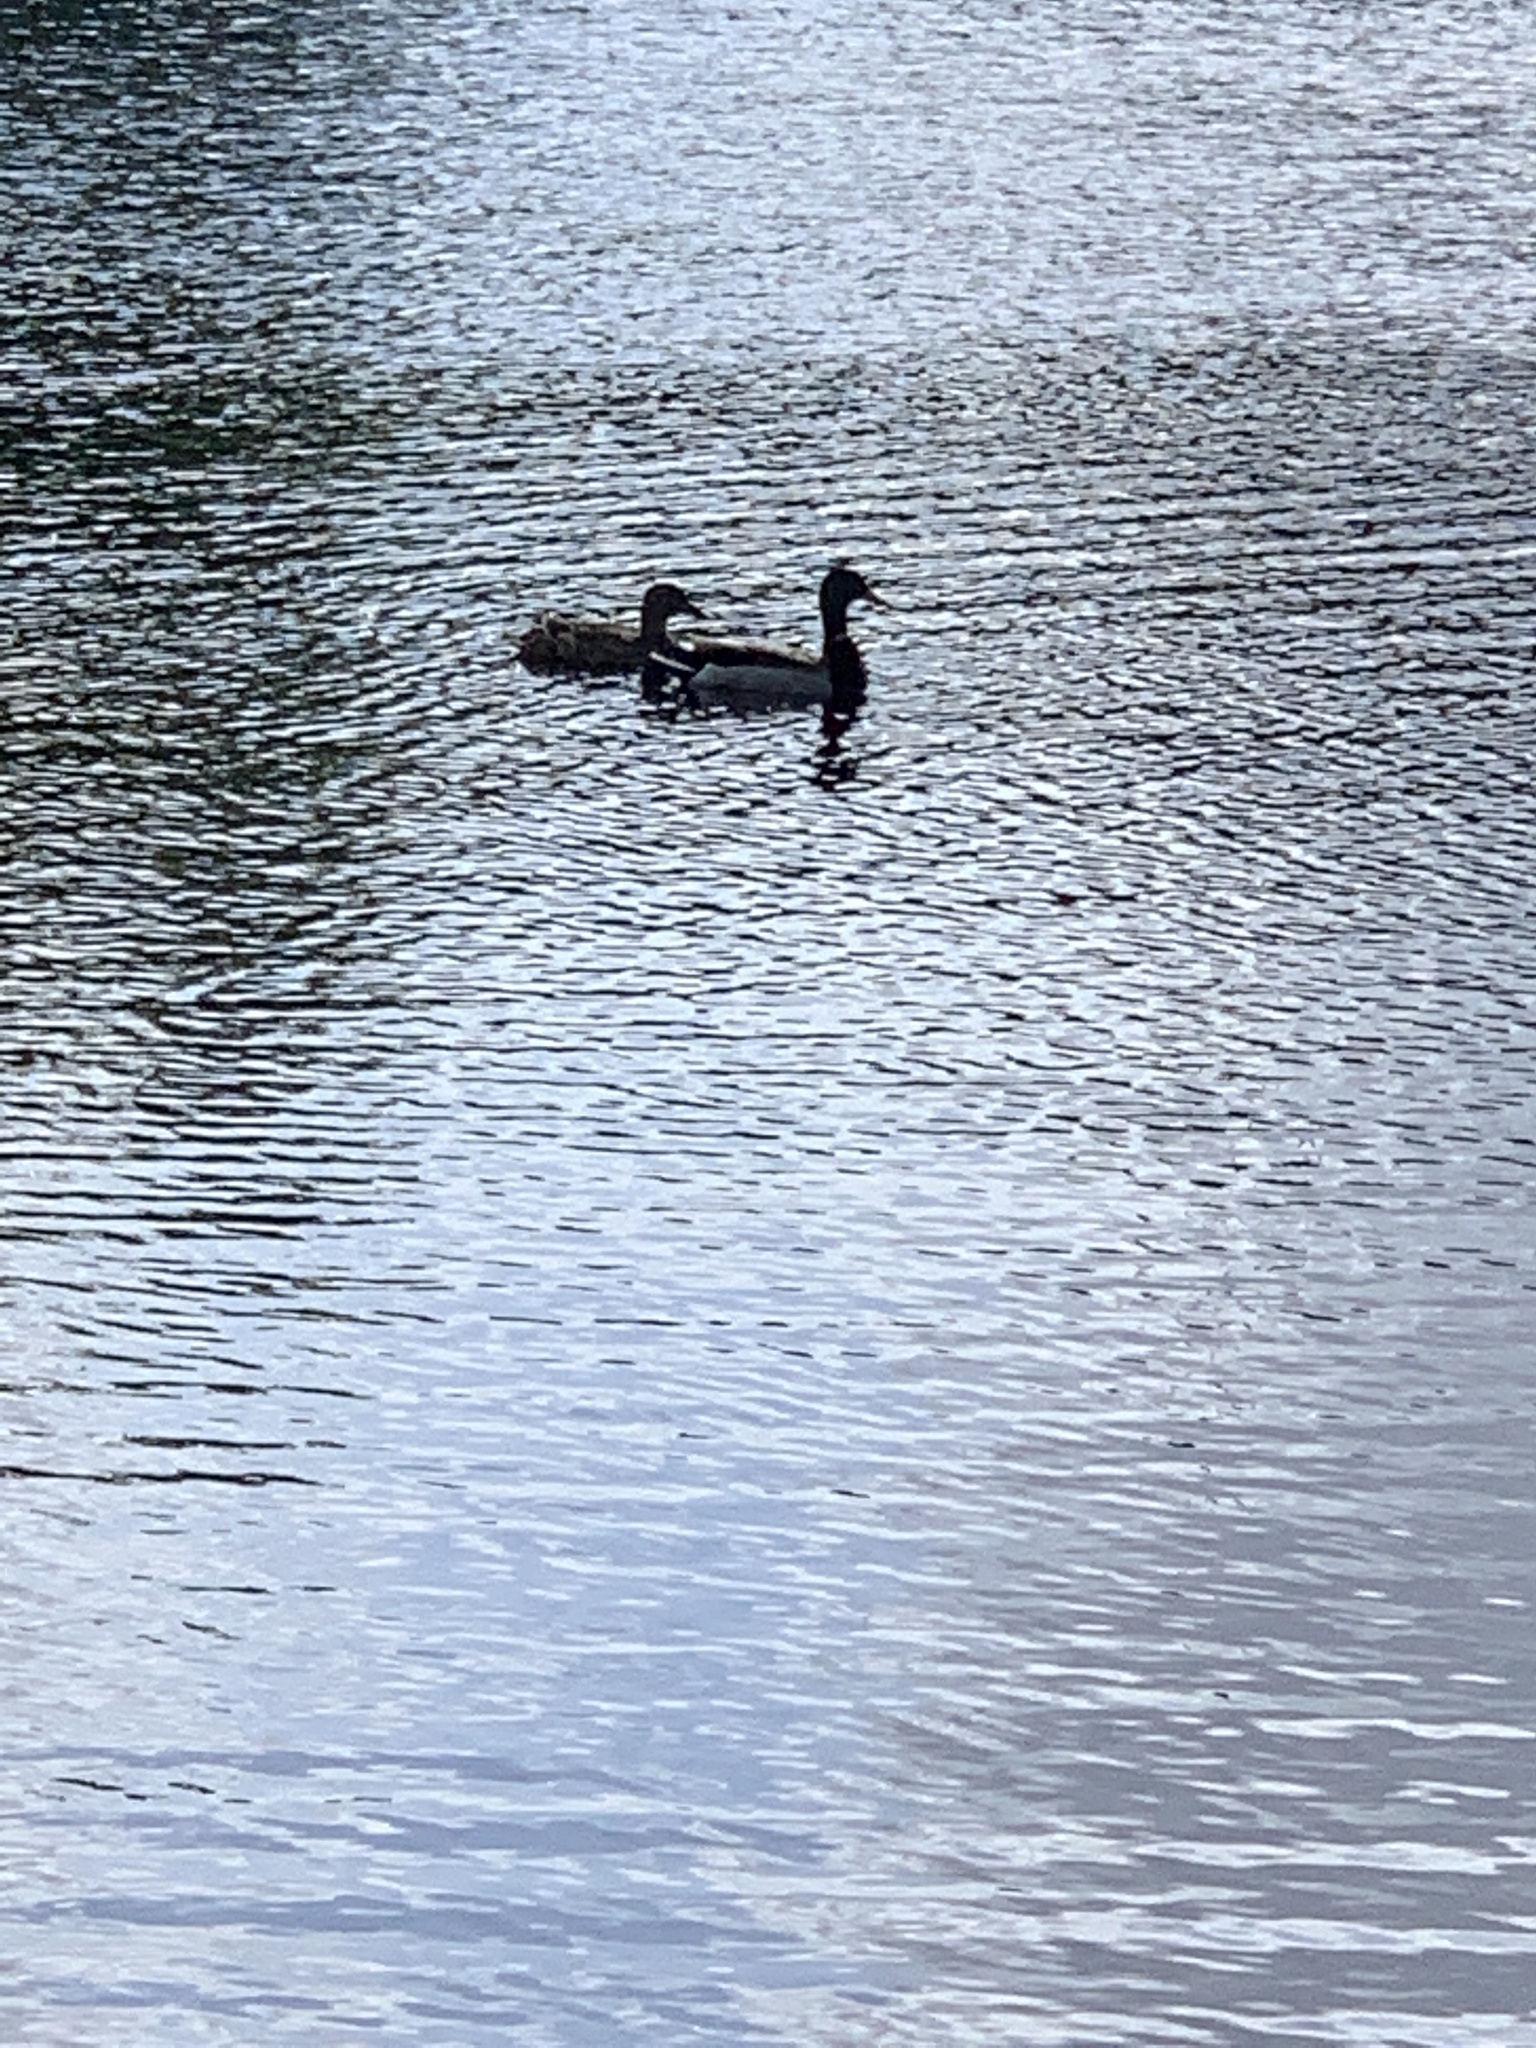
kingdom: Animalia
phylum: Chordata
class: Aves
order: Anseriformes
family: Anatidae
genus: Anas
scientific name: Anas platyrhynchos
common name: Mallard
